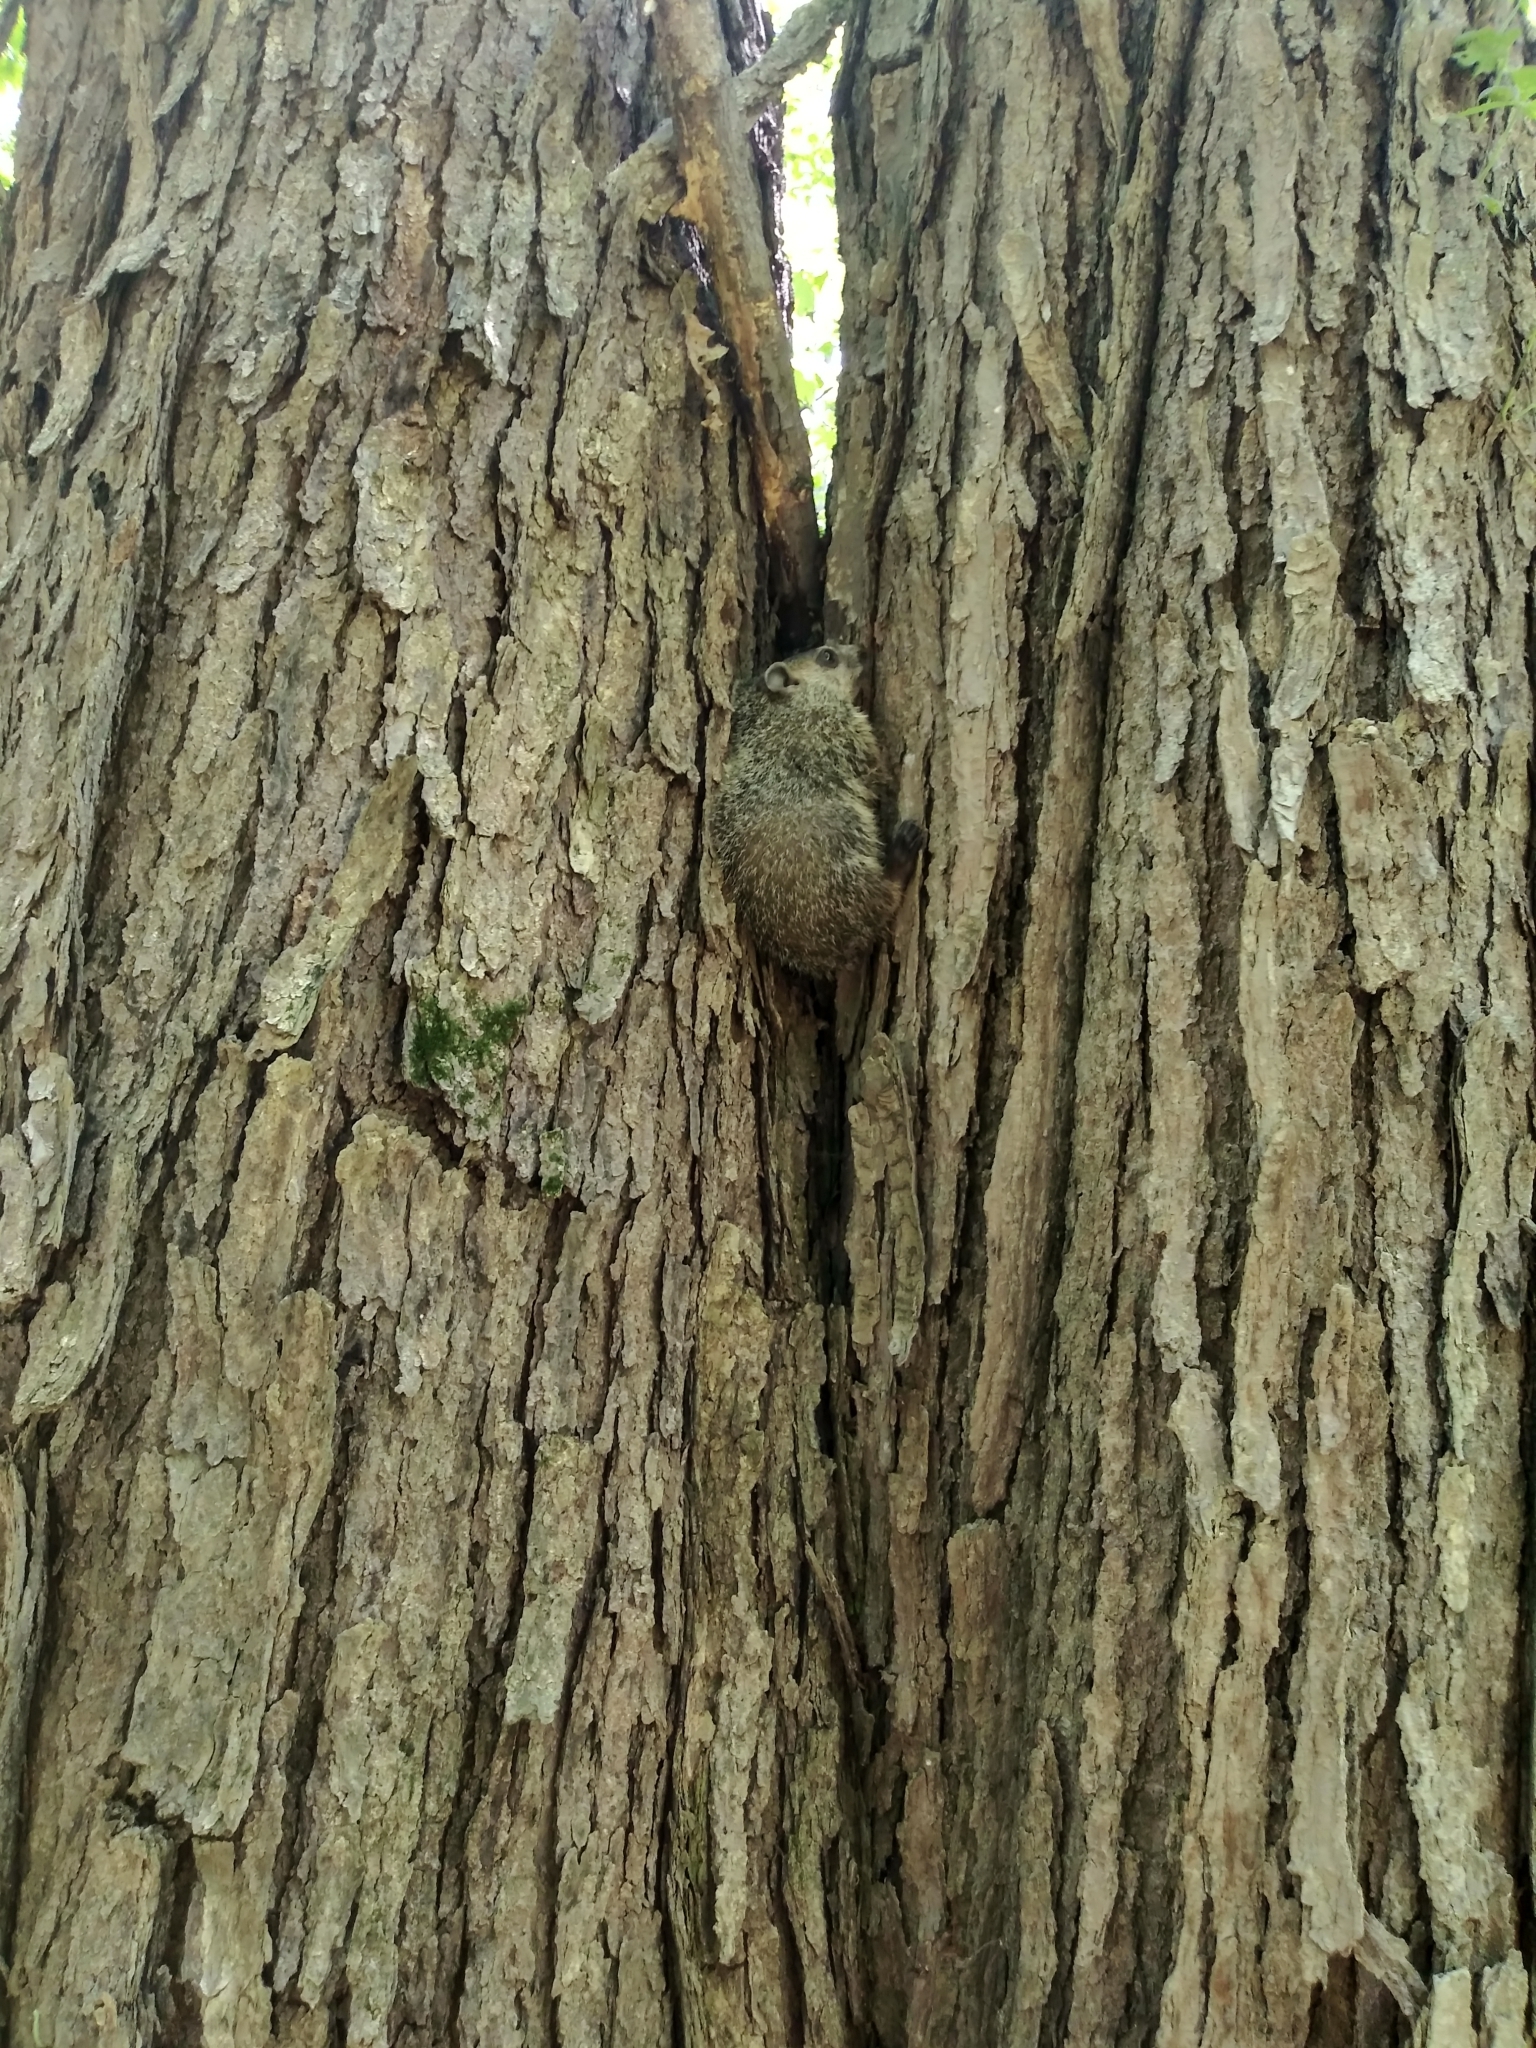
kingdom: Animalia
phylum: Chordata
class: Mammalia
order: Rodentia
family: Sciuridae
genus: Marmota
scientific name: Marmota monax
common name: Groundhog
